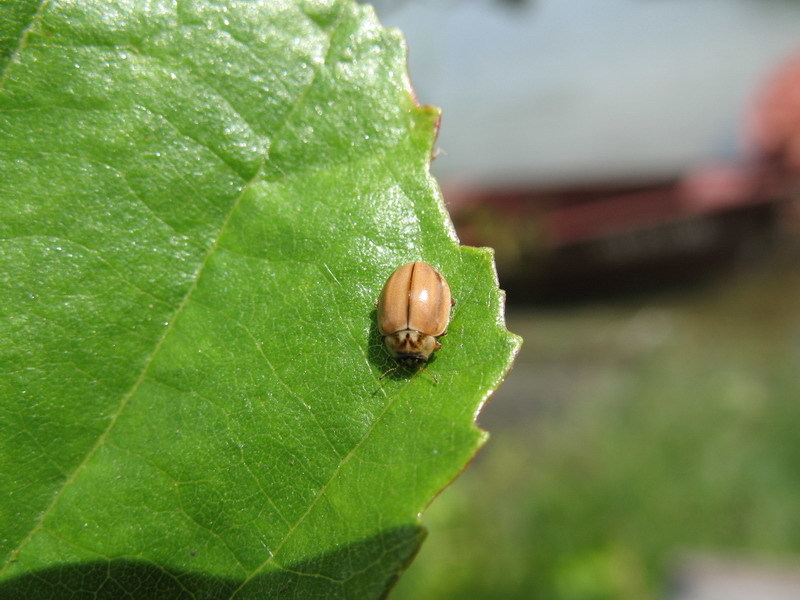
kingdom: Animalia
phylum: Arthropoda
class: Insecta
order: Coleoptera
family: Coccinellidae
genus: Aphidecta
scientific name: Aphidecta obliterata
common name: Larch ladybird
